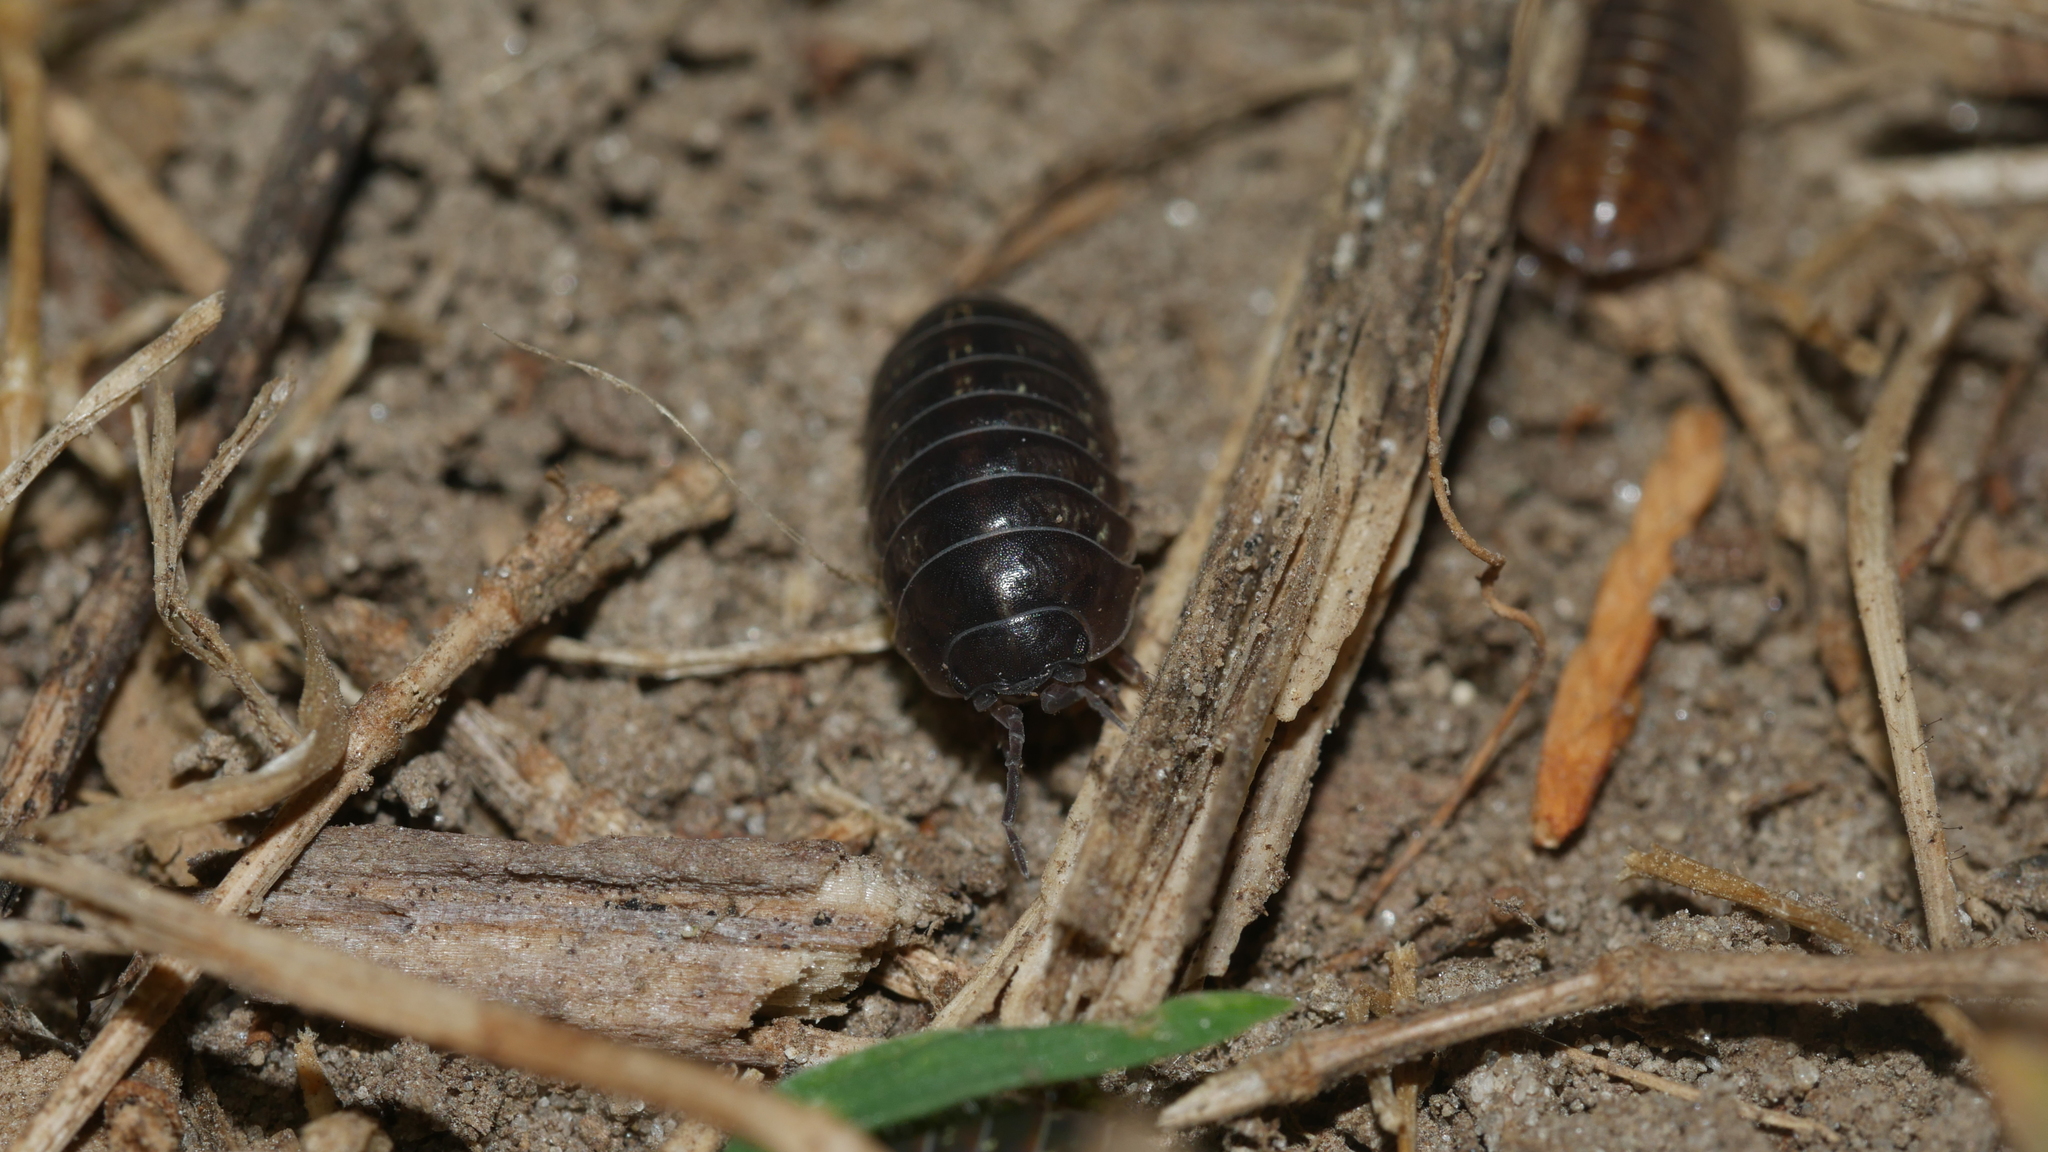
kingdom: Animalia
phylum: Arthropoda
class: Malacostraca
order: Isopoda
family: Armadillidiidae
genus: Armadillidium
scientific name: Armadillidium vulgare
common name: Common pill woodlouse
